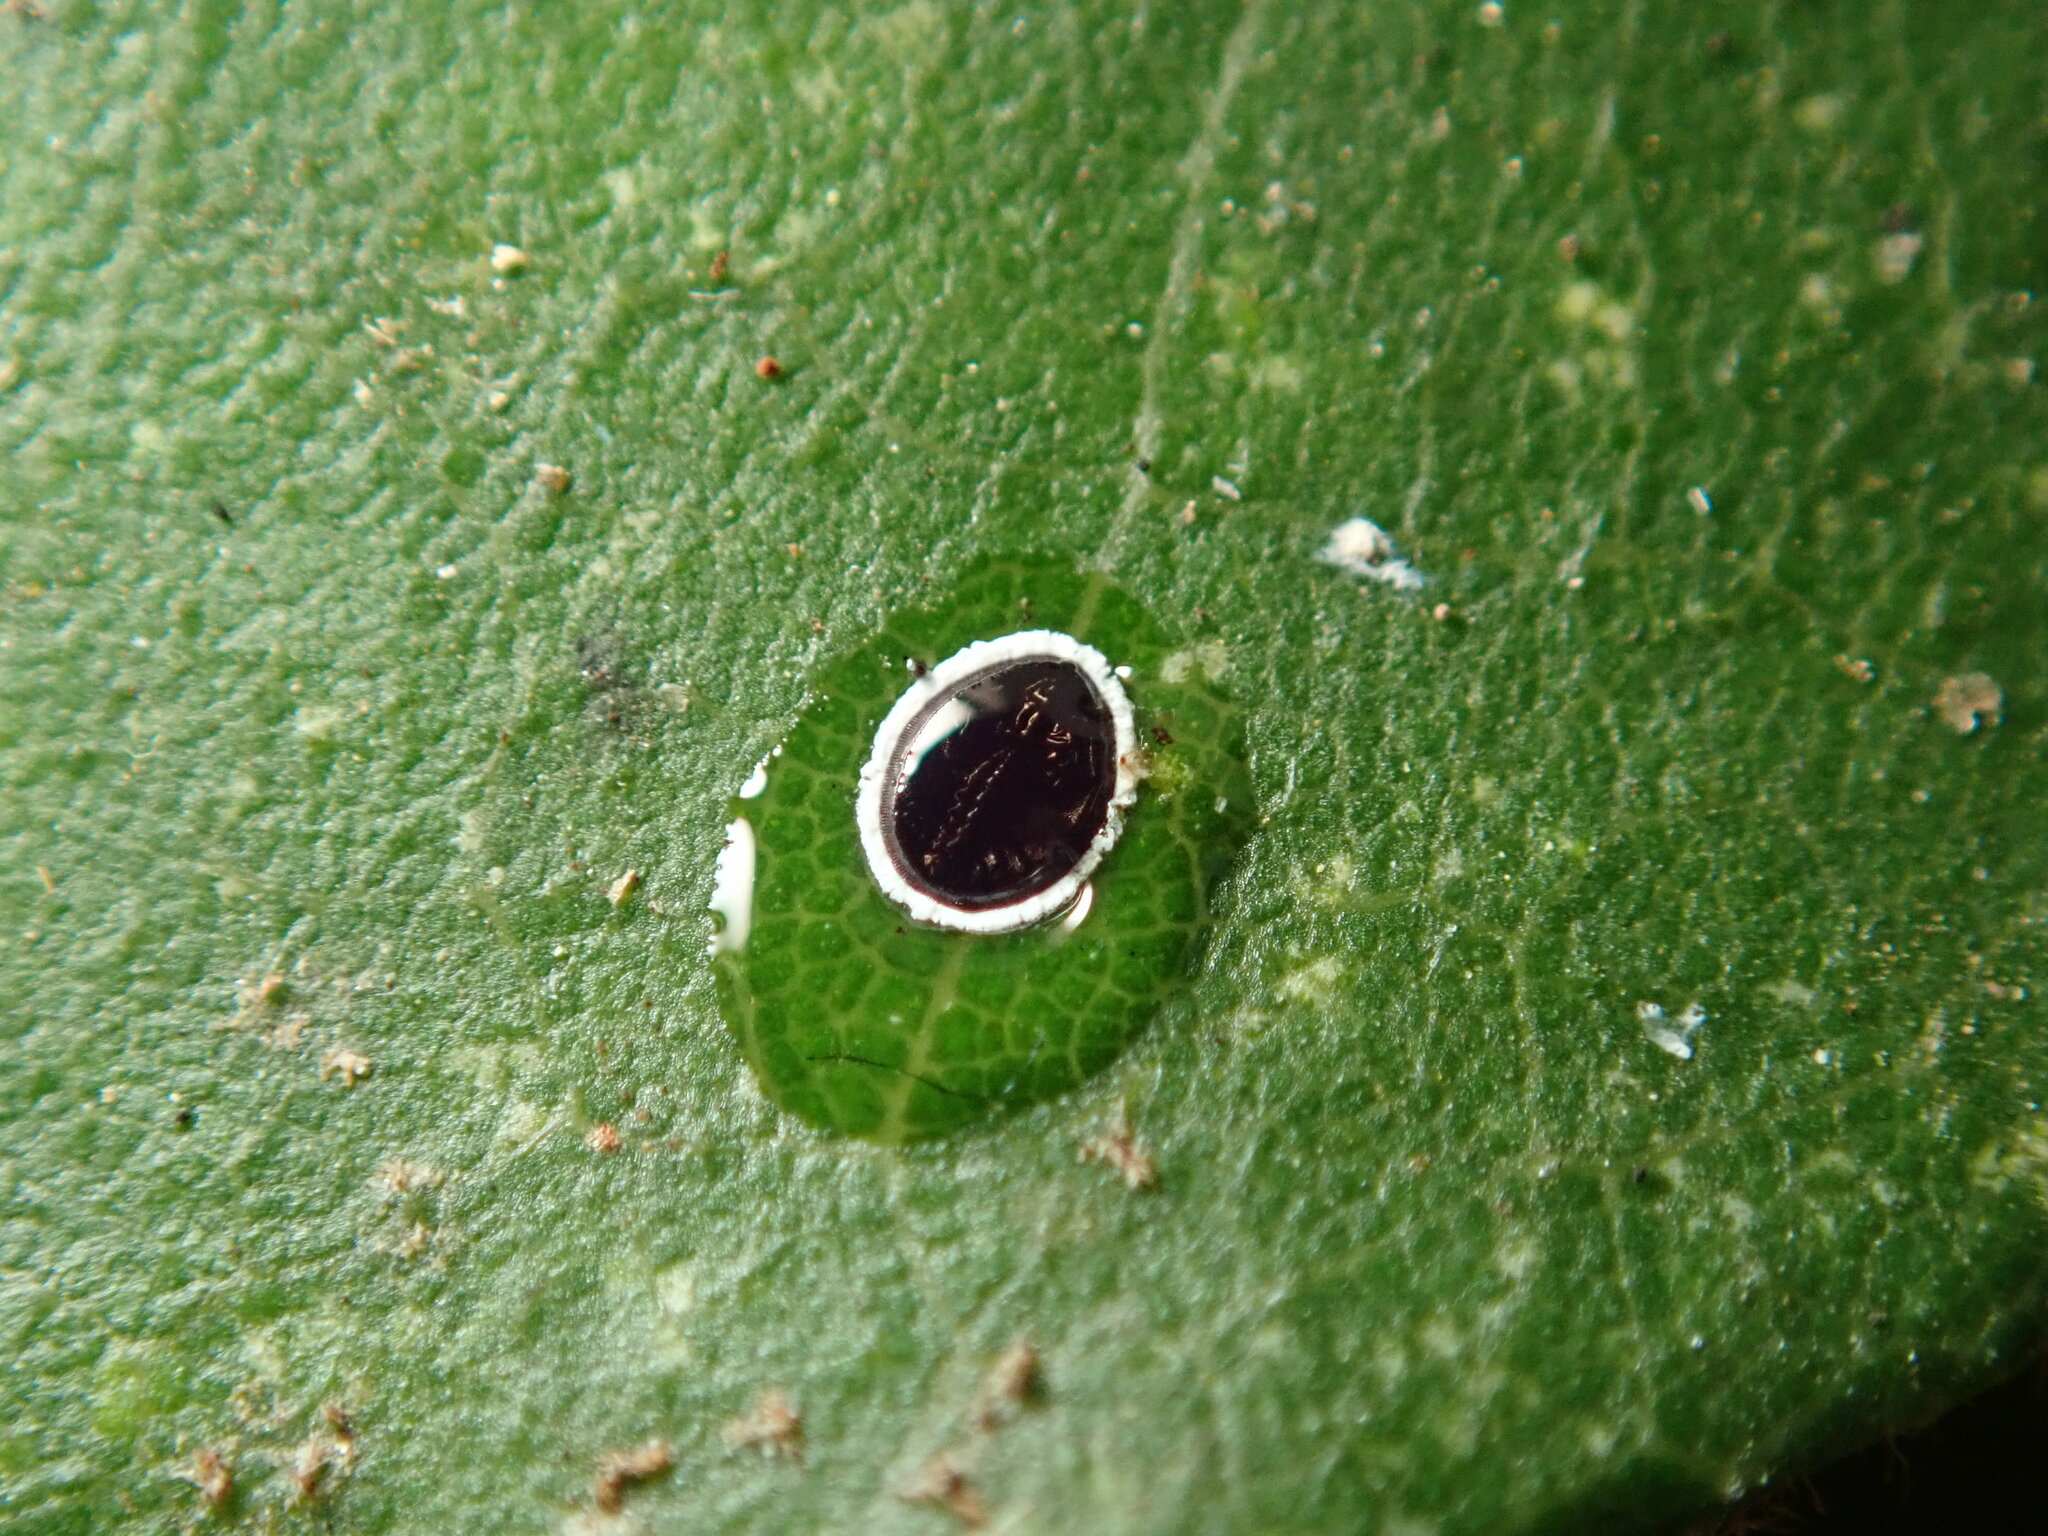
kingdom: Animalia
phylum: Arthropoda
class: Insecta
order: Hemiptera
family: Aleyrodidae
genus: Tetraleurodes
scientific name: Tetraleurodes perileuca
